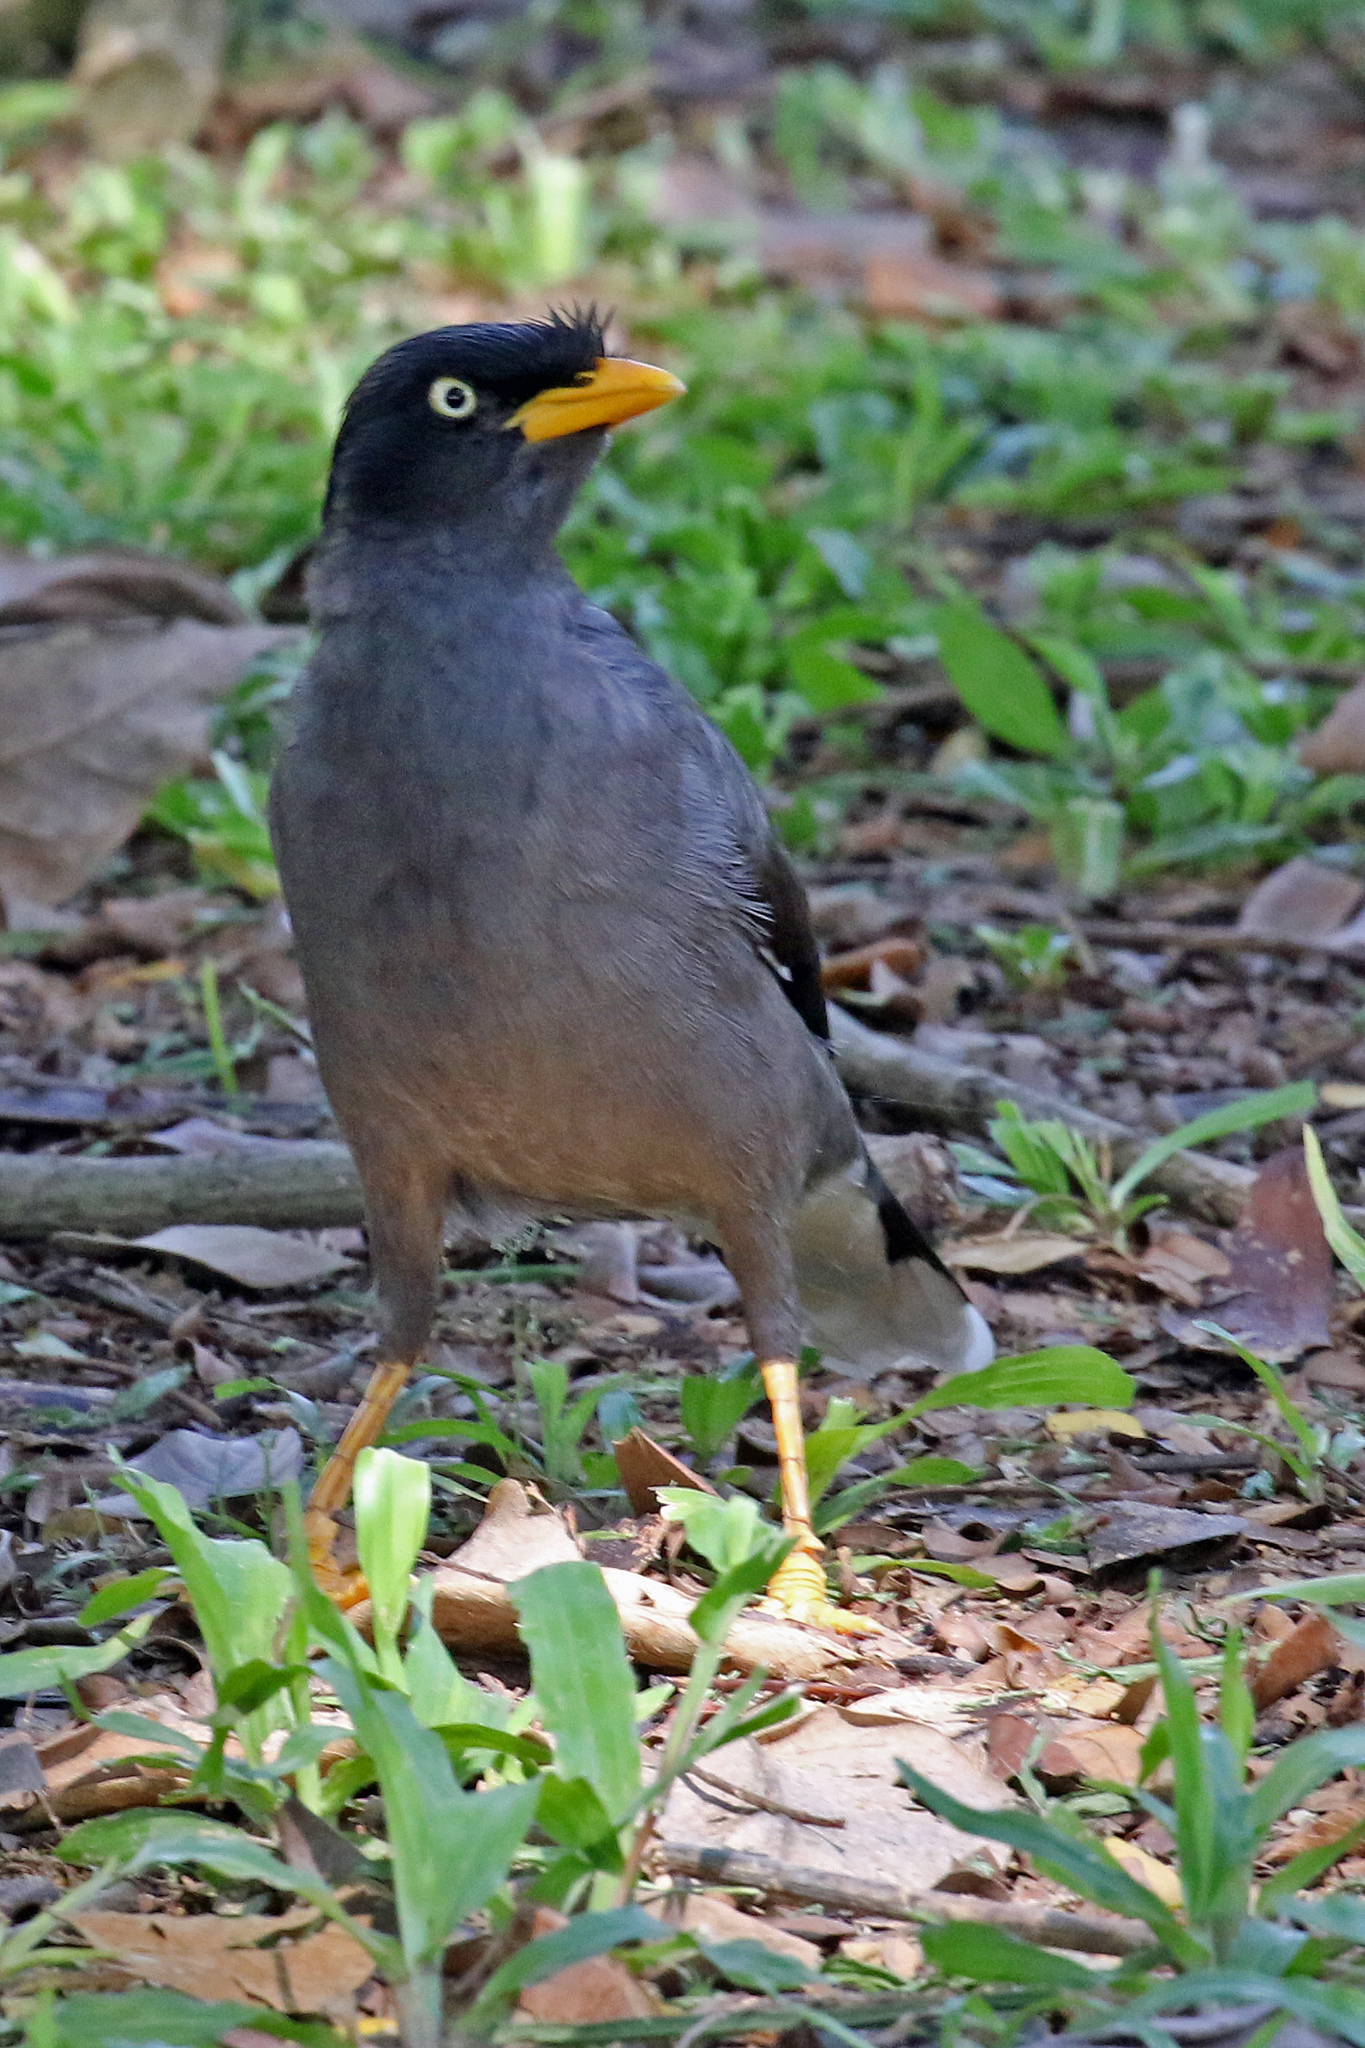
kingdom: Animalia
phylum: Chordata
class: Aves
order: Passeriformes
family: Sturnidae
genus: Acridotheres
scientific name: Acridotheres javanicus
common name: Javan myna
